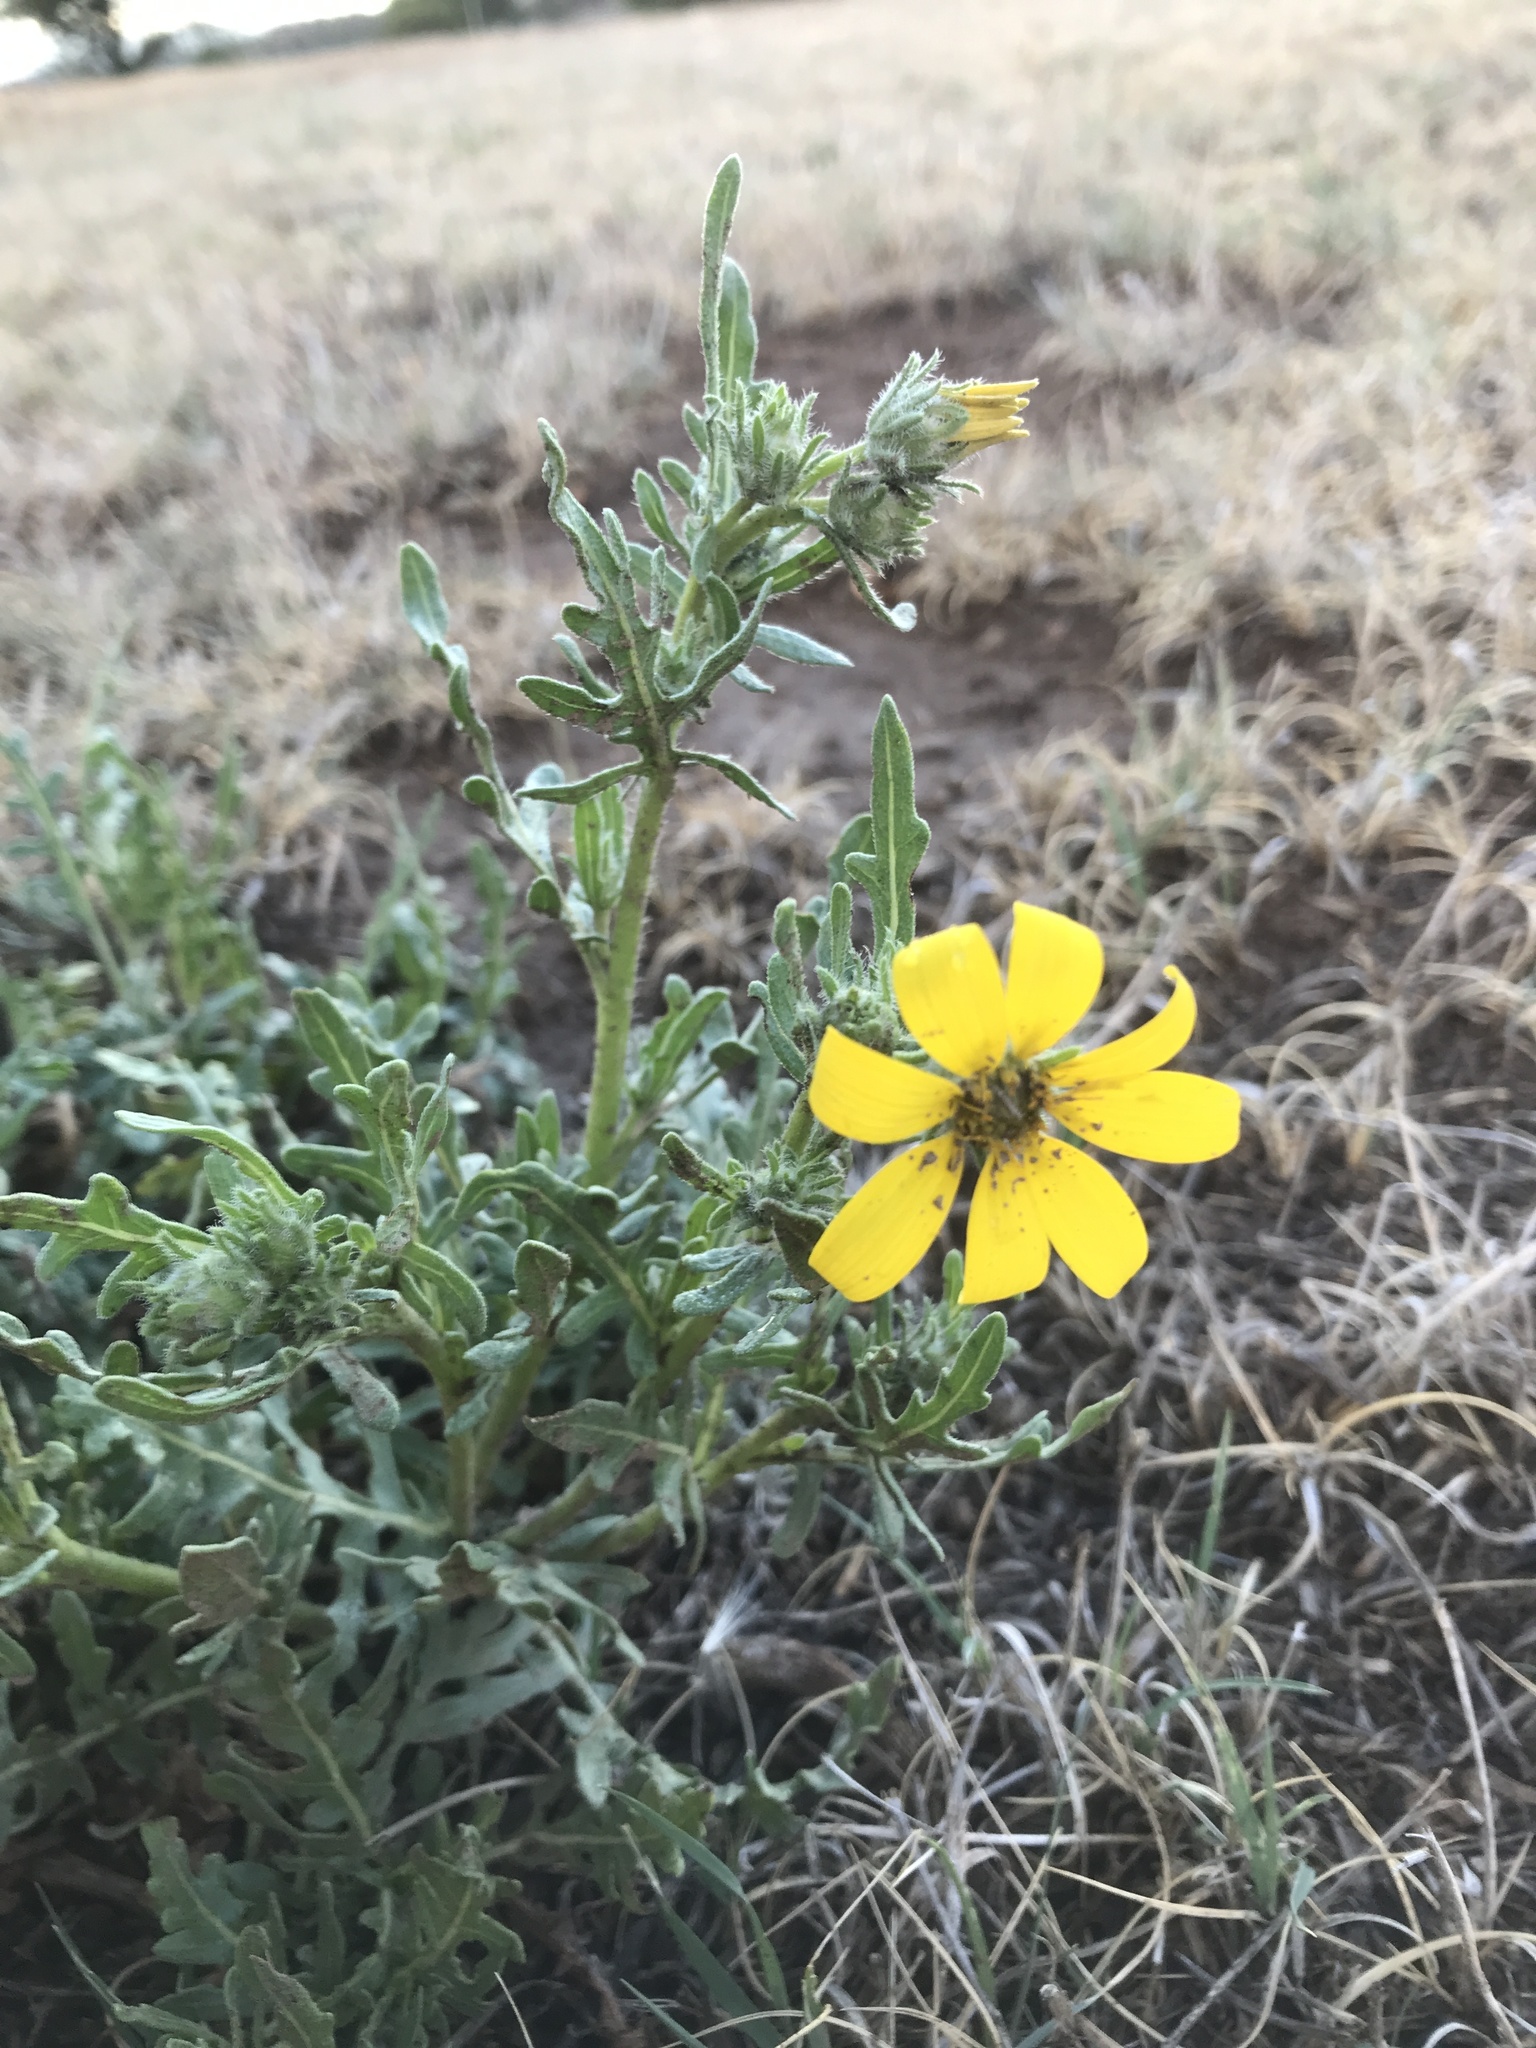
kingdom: Plantae
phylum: Tracheophyta
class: Magnoliopsida
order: Asterales
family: Asteraceae
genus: Engelmannia
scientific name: Engelmannia peristenia
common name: Engelmann's daisy
